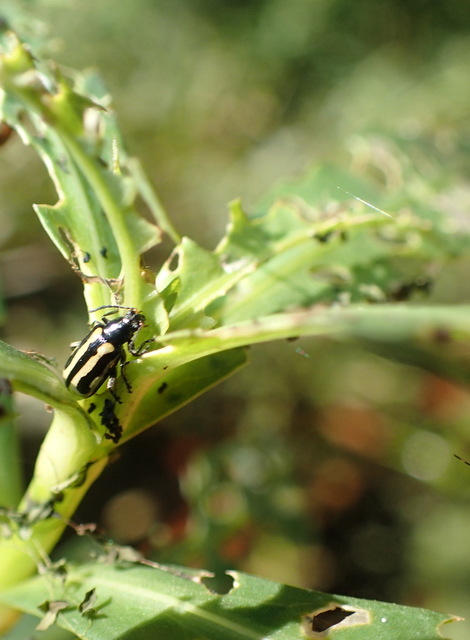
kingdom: Animalia
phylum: Arthropoda
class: Insecta
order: Coleoptera
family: Chrysomelidae
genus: Agasicles
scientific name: Agasicles hygrophila
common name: Alligatorweed flea beetle
